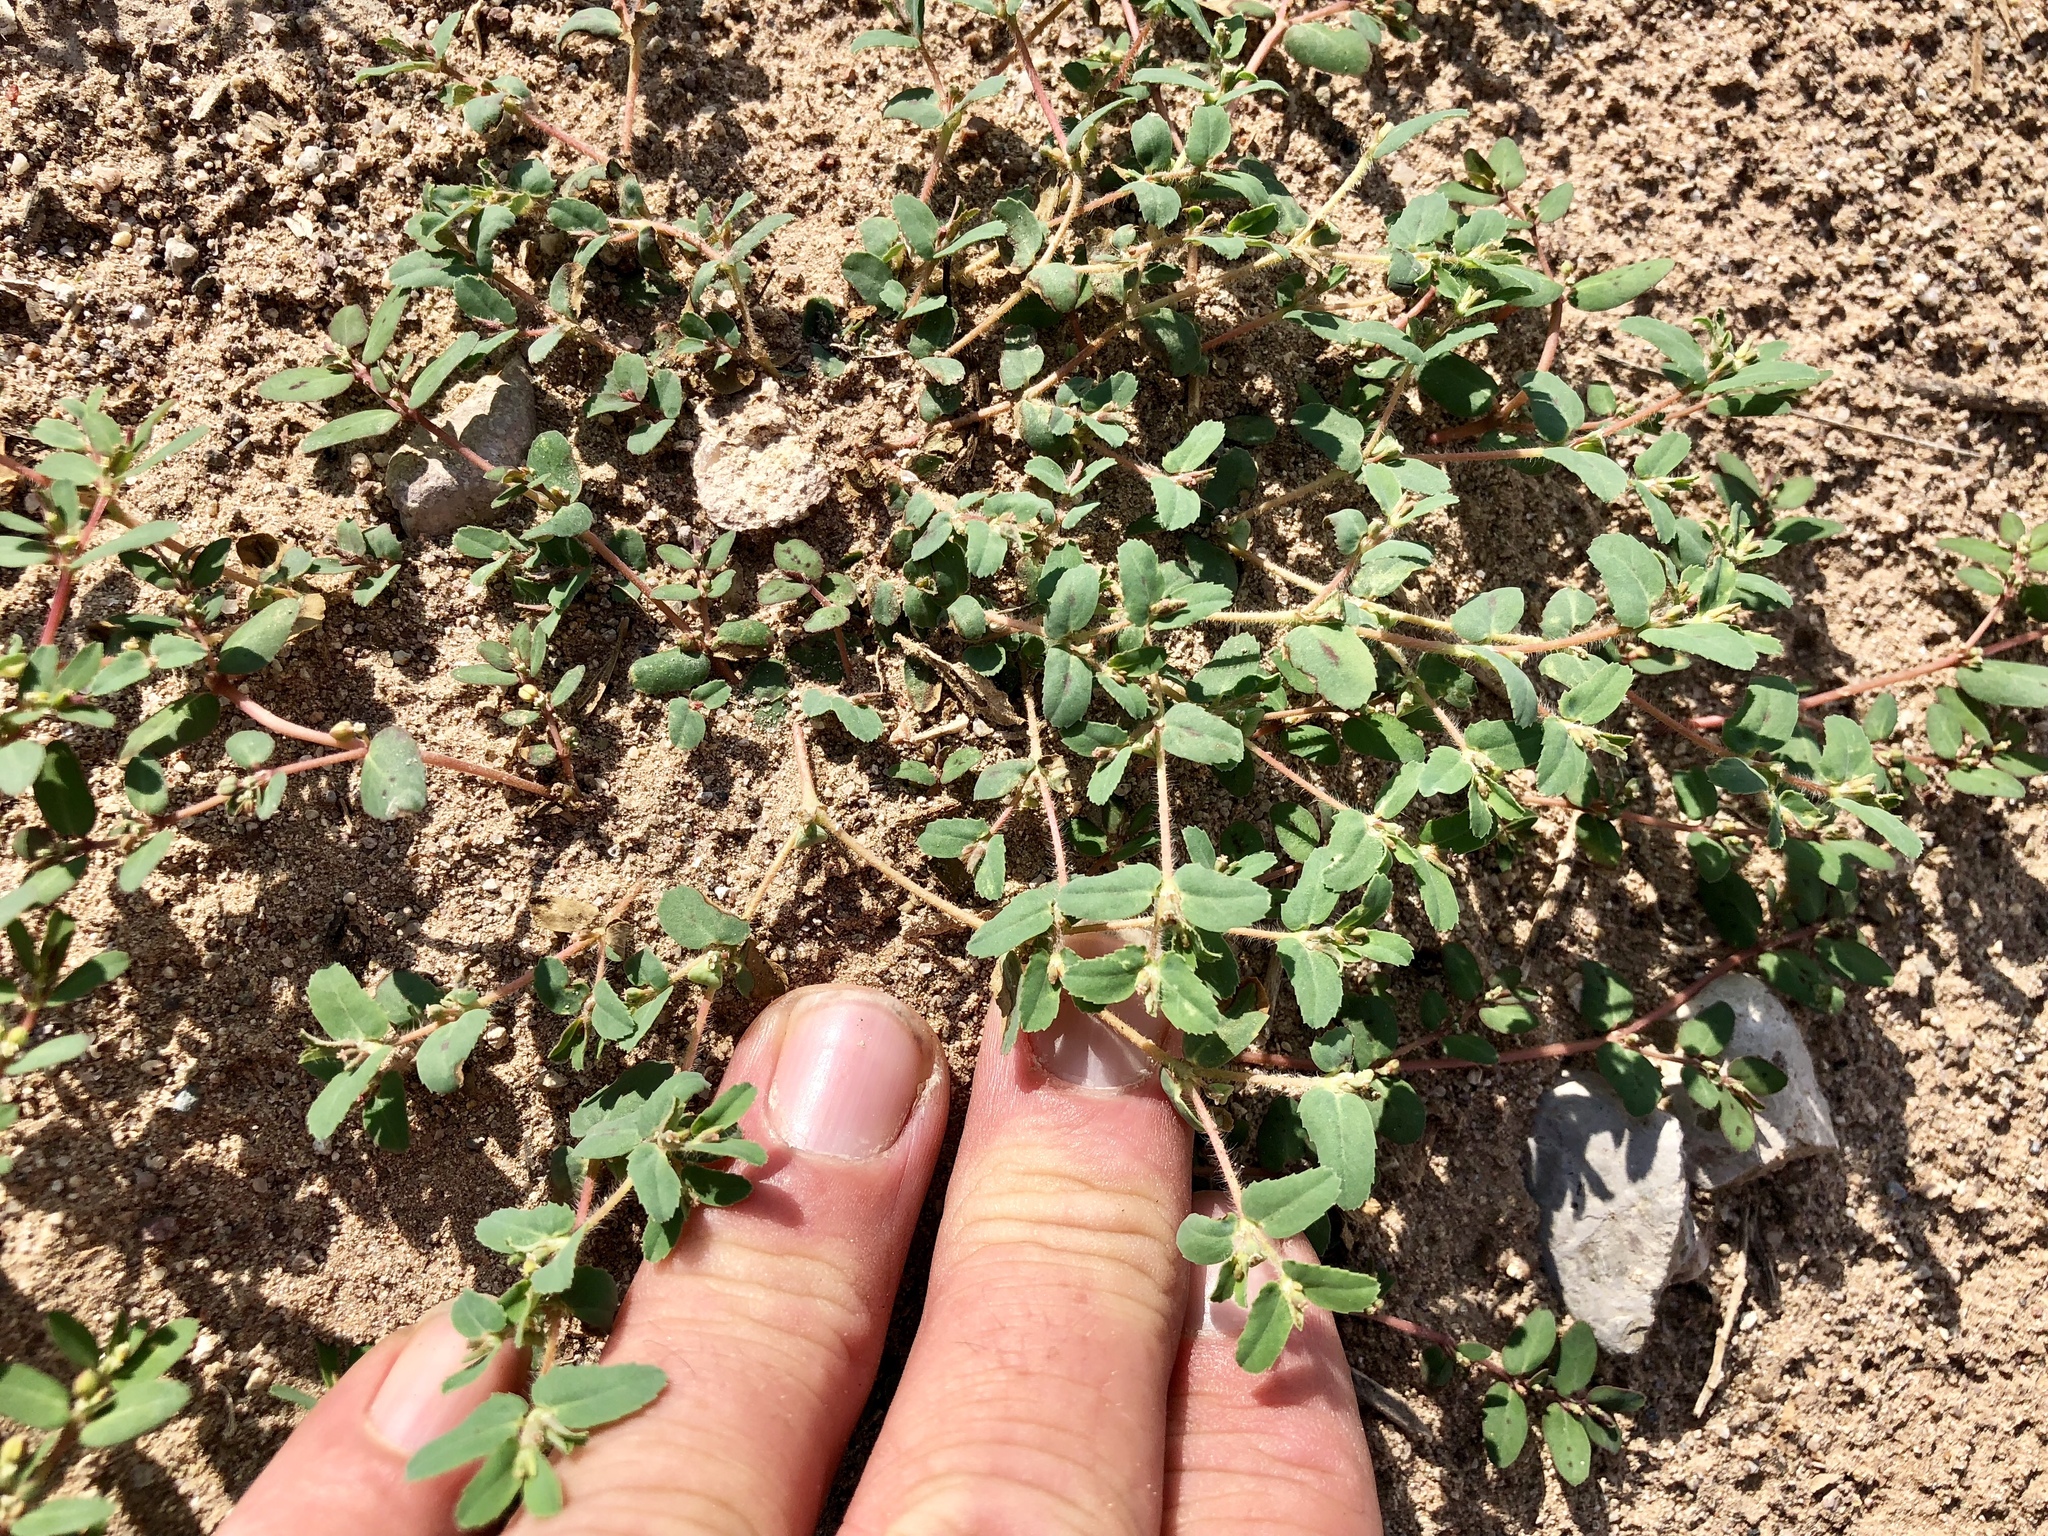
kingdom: Plantae
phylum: Tracheophyta
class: Magnoliopsida
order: Malpighiales
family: Euphorbiaceae
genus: Euphorbia
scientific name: Euphorbia serrula
